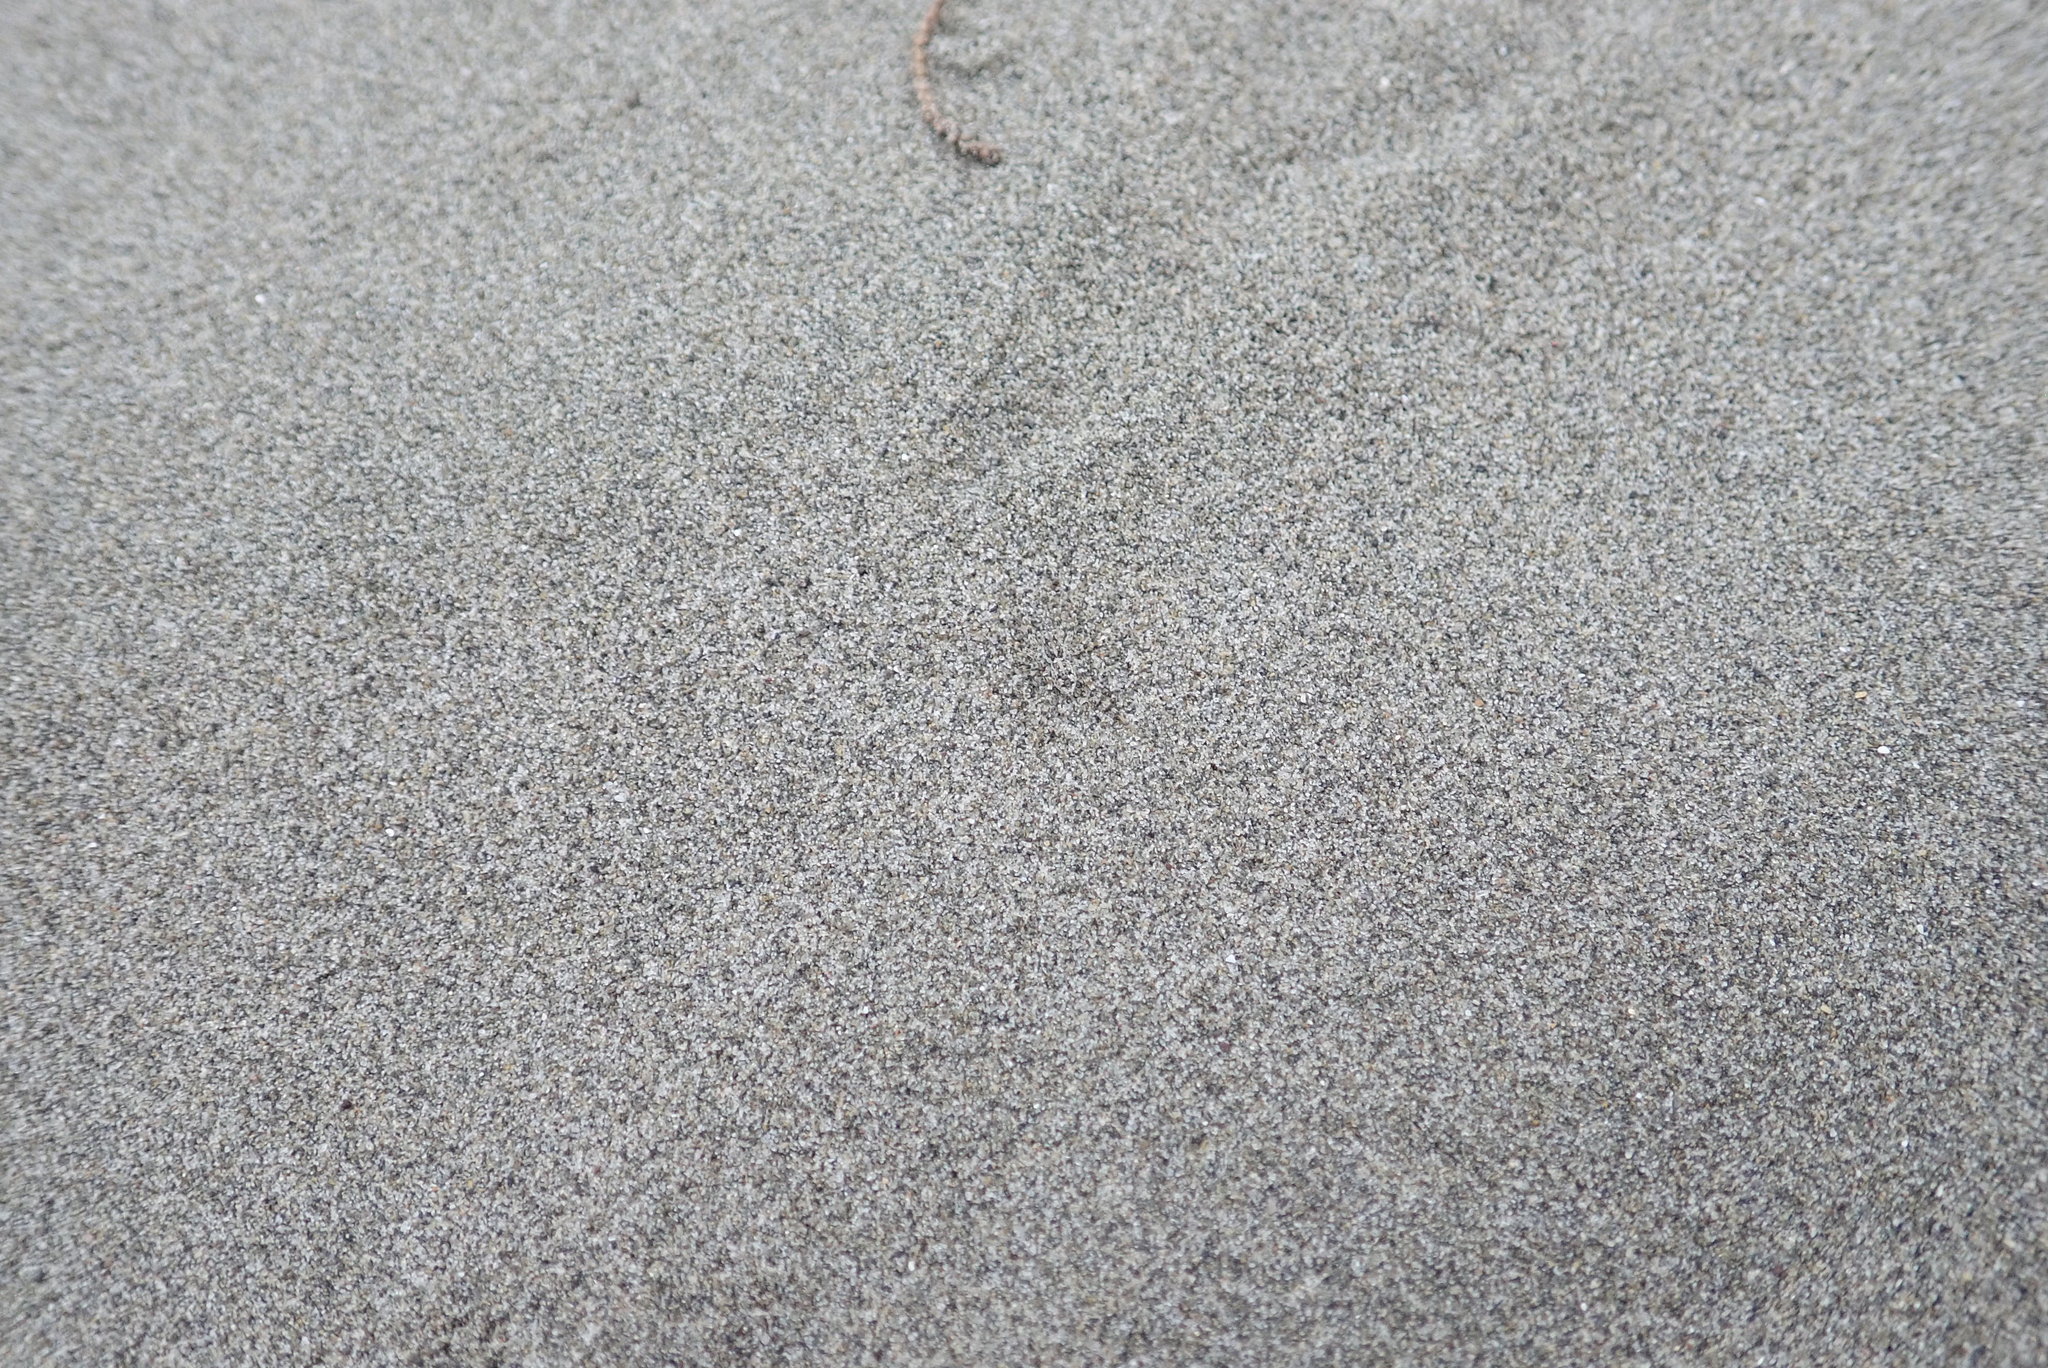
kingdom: Animalia
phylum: Arthropoda
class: Arachnida
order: Araneae
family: Lycosidae
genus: Anoteropsis
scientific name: Anoteropsis litoralis
